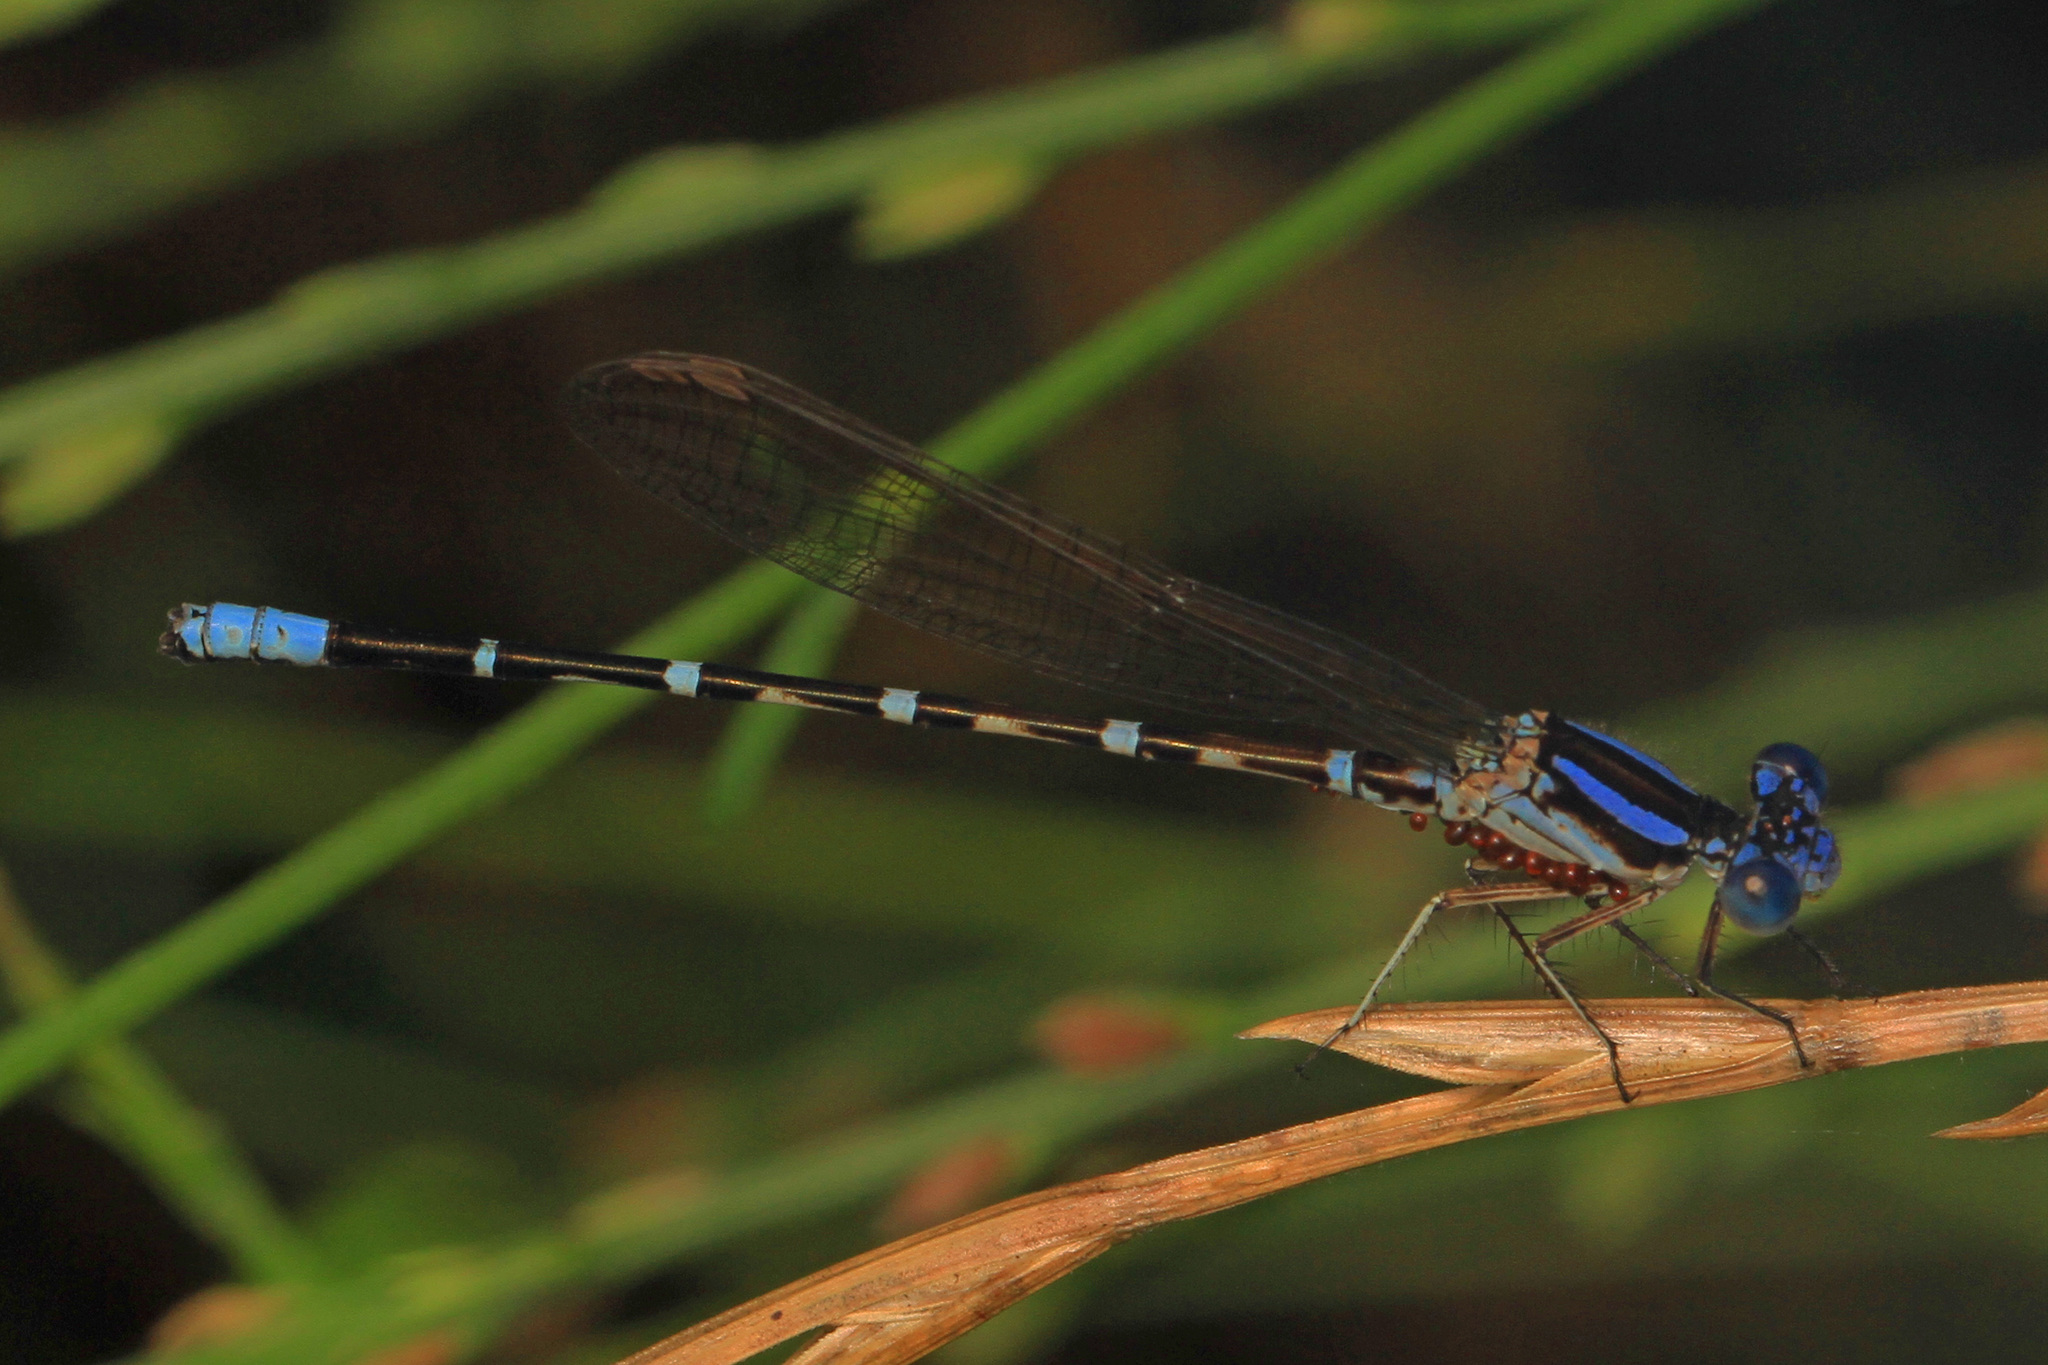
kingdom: Animalia
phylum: Arthropoda
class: Insecta
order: Odonata
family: Coenagrionidae
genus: Argia
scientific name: Argia sedula
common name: Blue-ringed dancer
